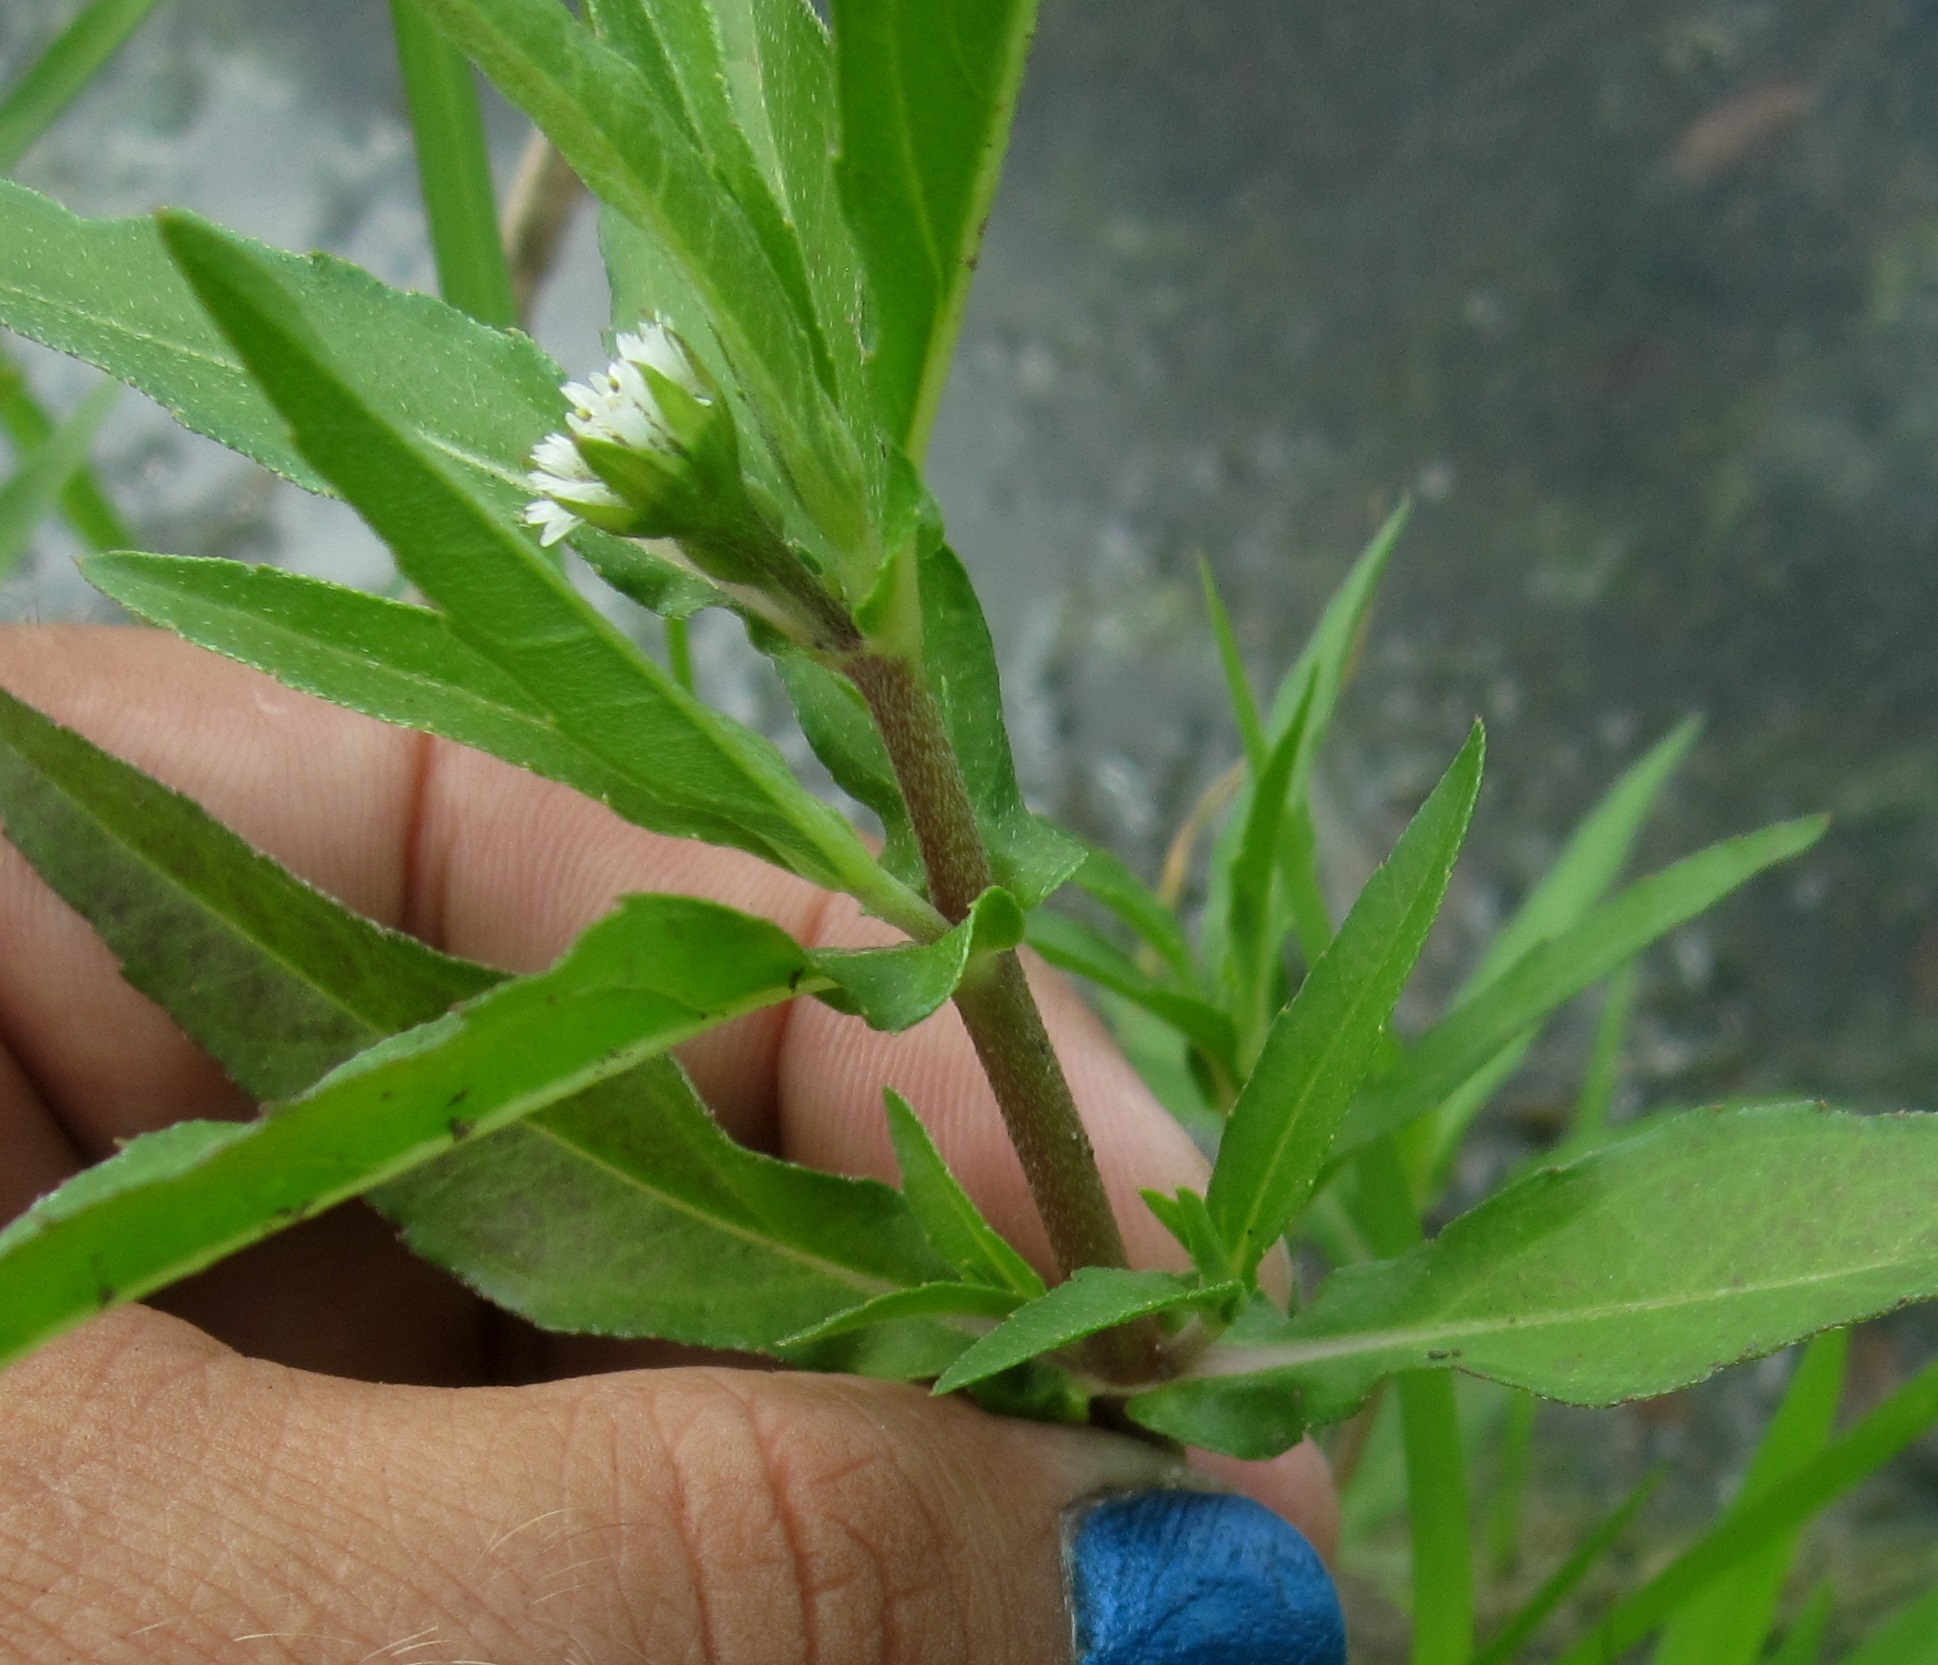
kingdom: Plantae
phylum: Tracheophyta
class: Magnoliopsida
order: Asterales
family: Asteraceae
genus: Eclipta
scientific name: Eclipta prostrata
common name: False daisy
